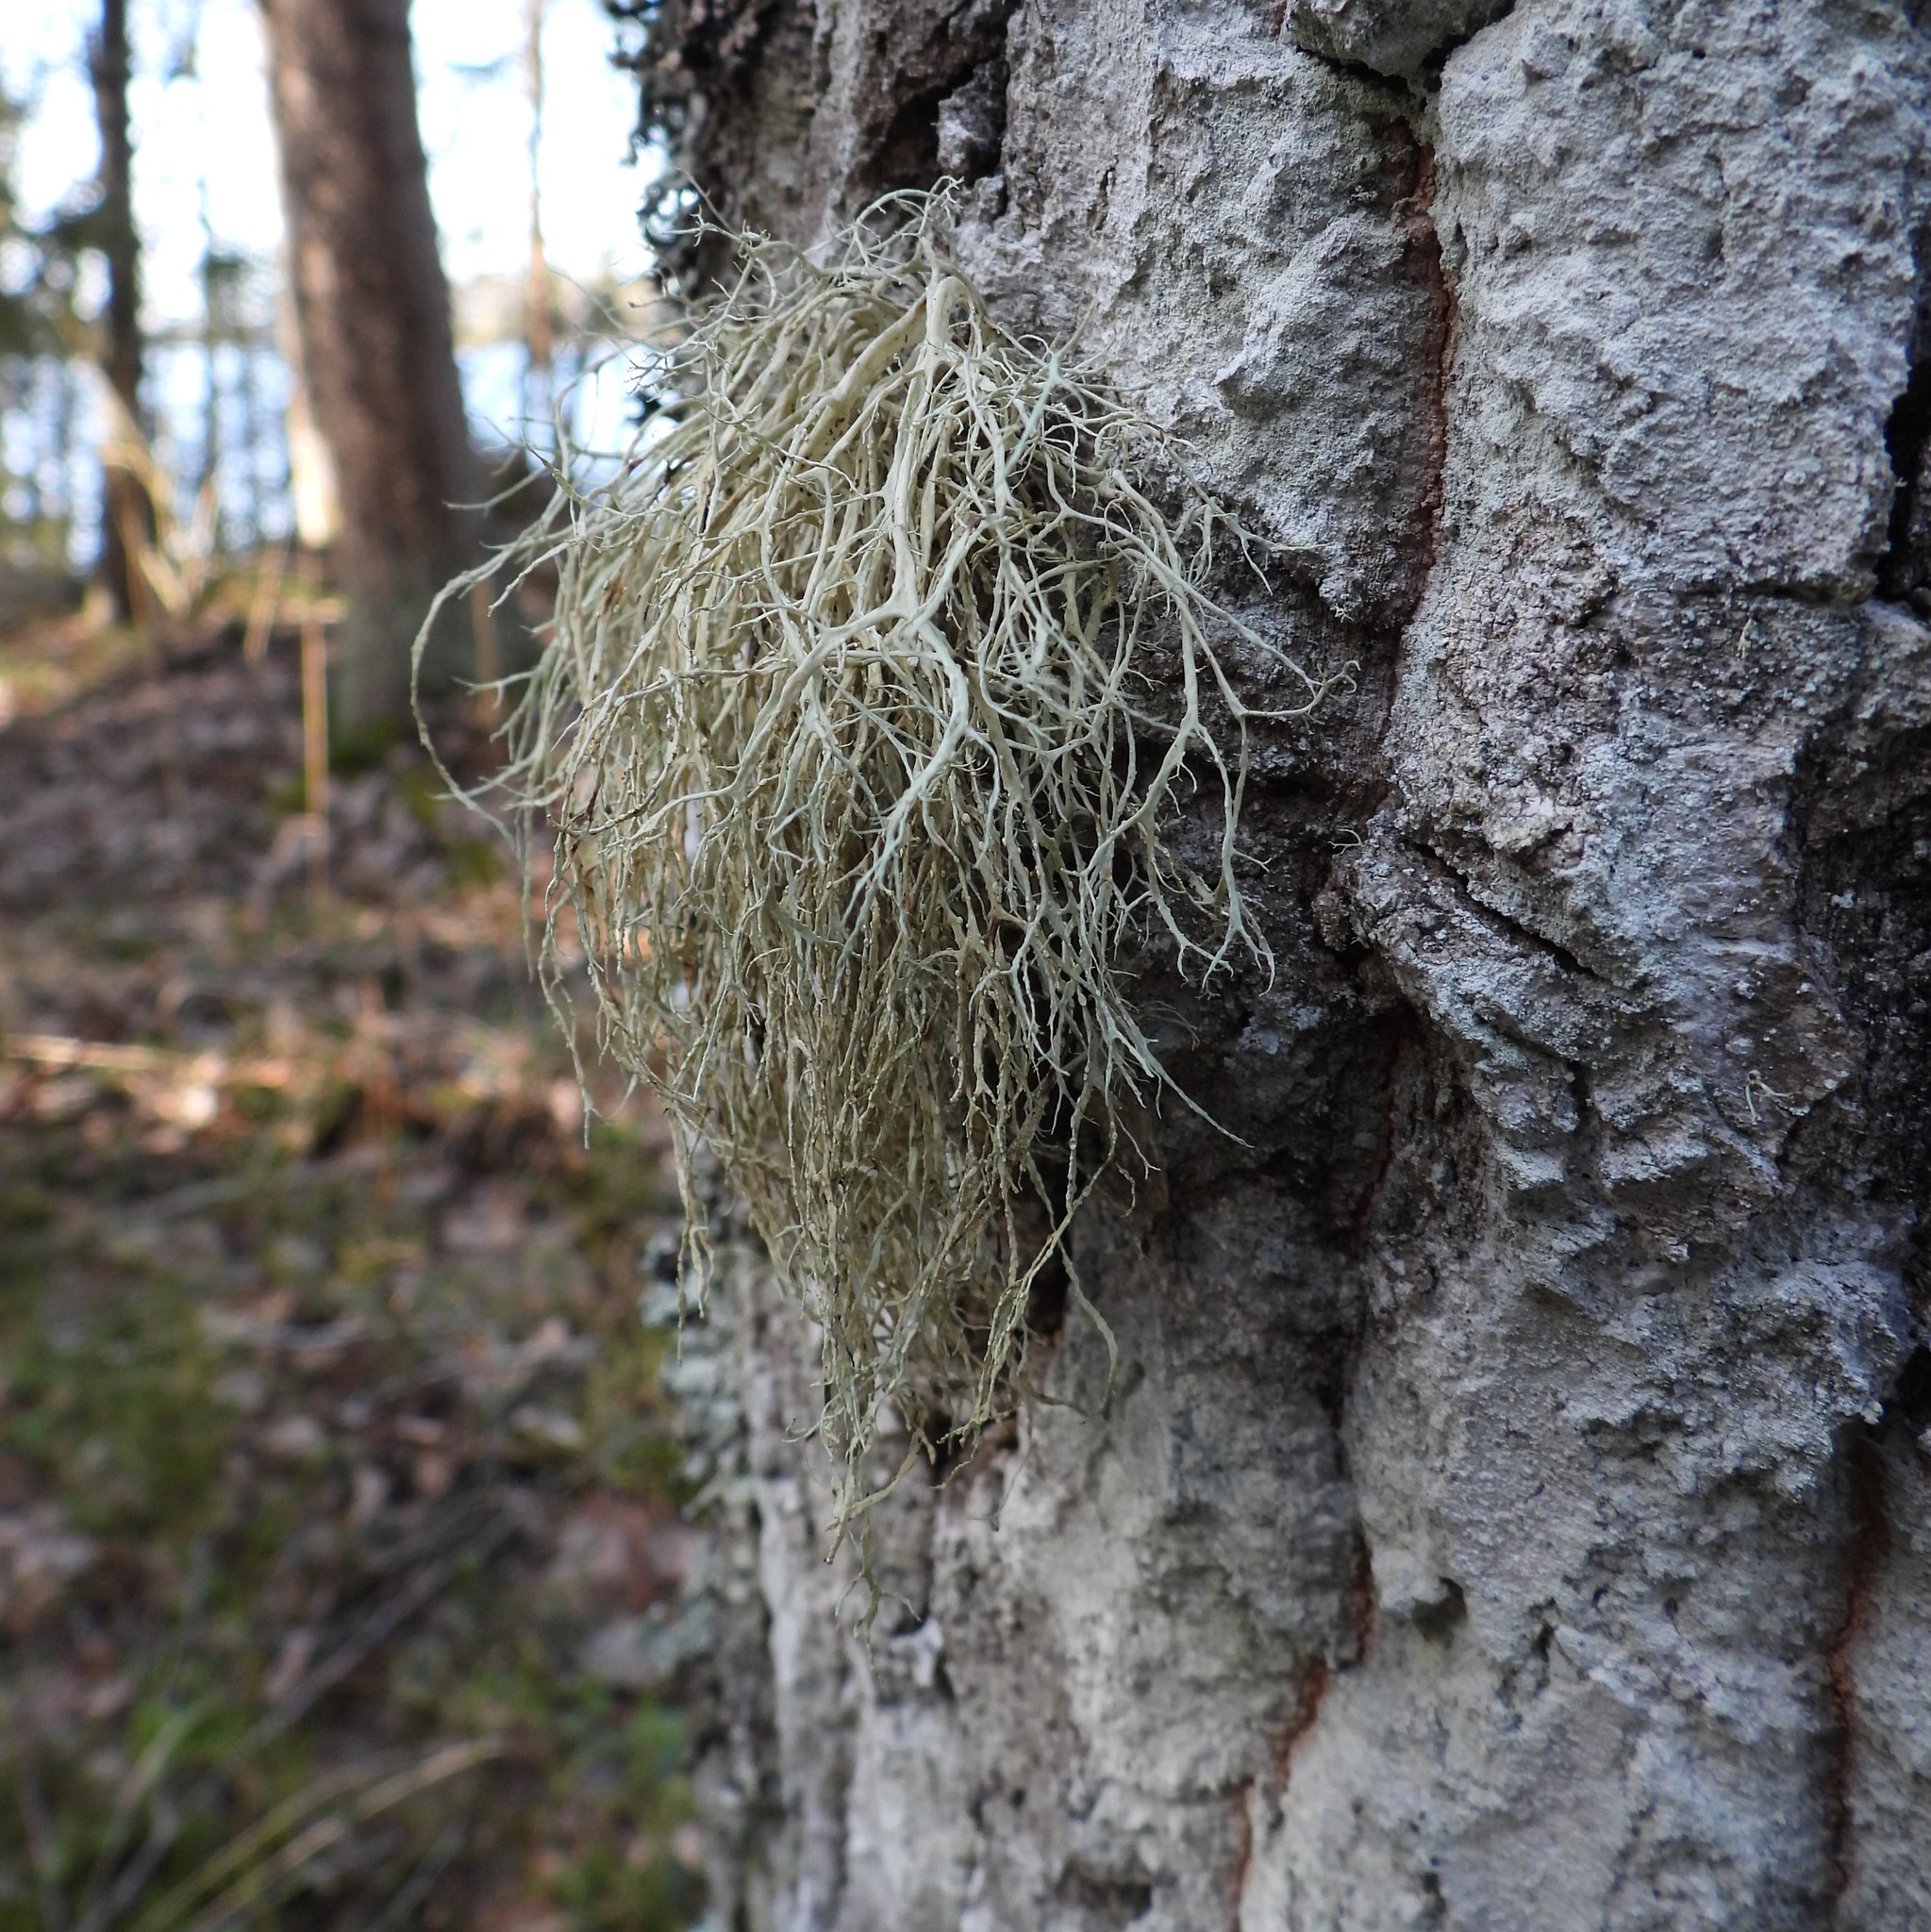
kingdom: Fungi
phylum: Ascomycota
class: Lecanoromycetes
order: Lecanorales
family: Ramalinaceae
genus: Ramalina
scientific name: Ramalina farinacea
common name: Farinose cartilage lichen
